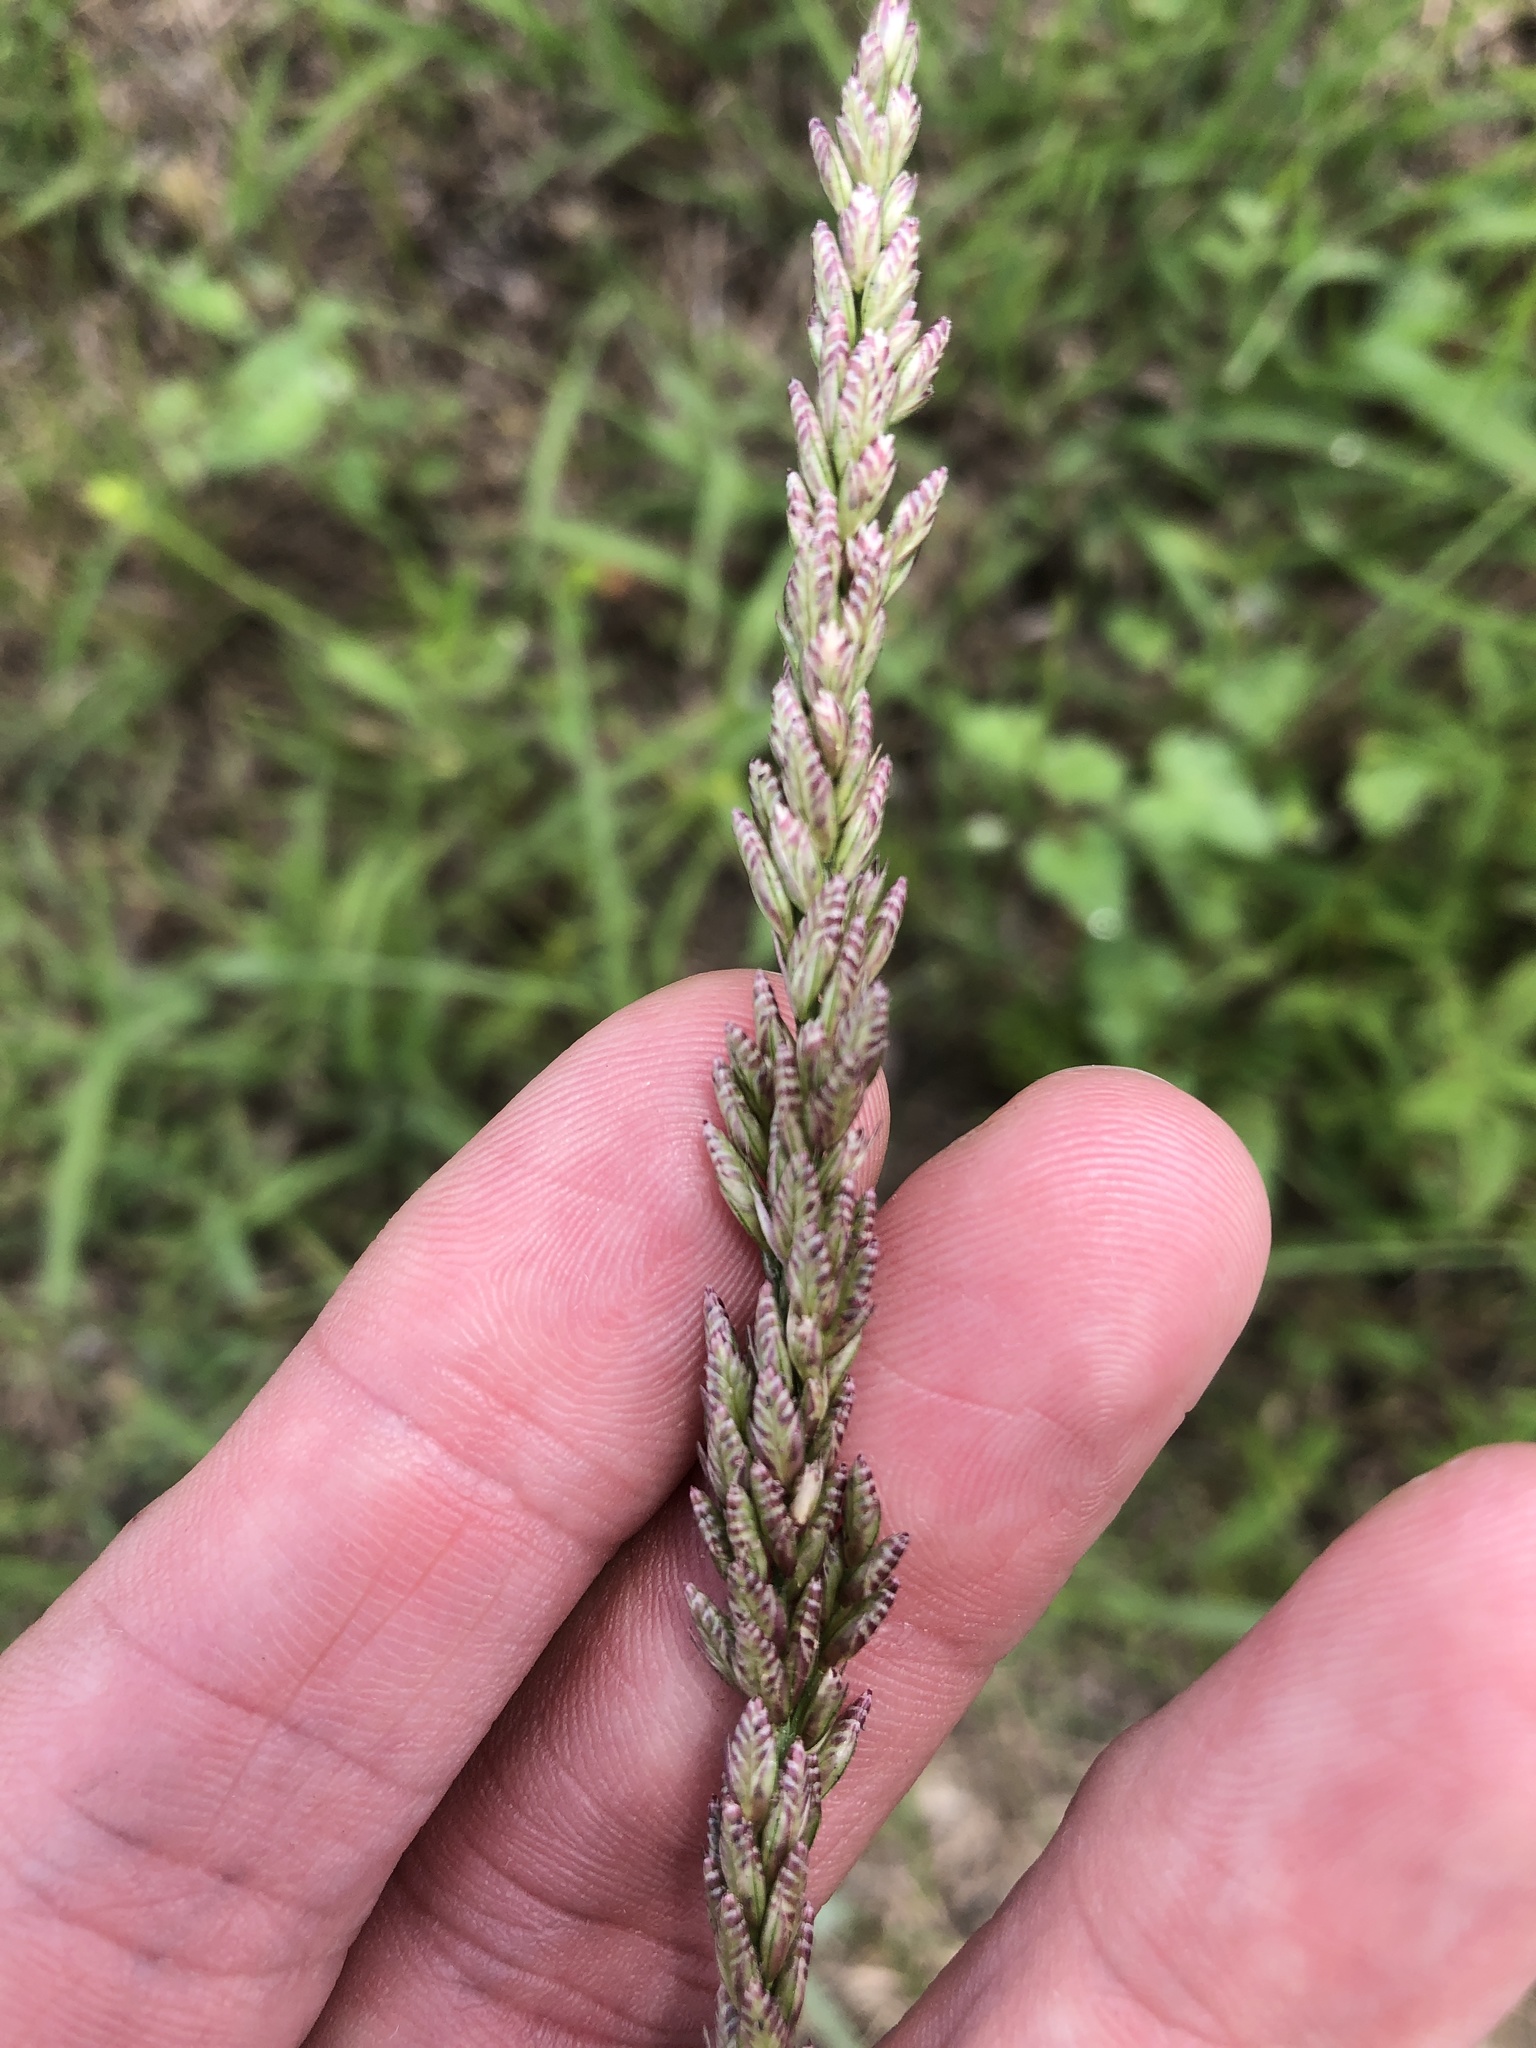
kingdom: Plantae
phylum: Tracheophyta
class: Liliopsida
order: Poales
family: Poaceae
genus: Tridens
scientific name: Tridens albescens
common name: White tridens
